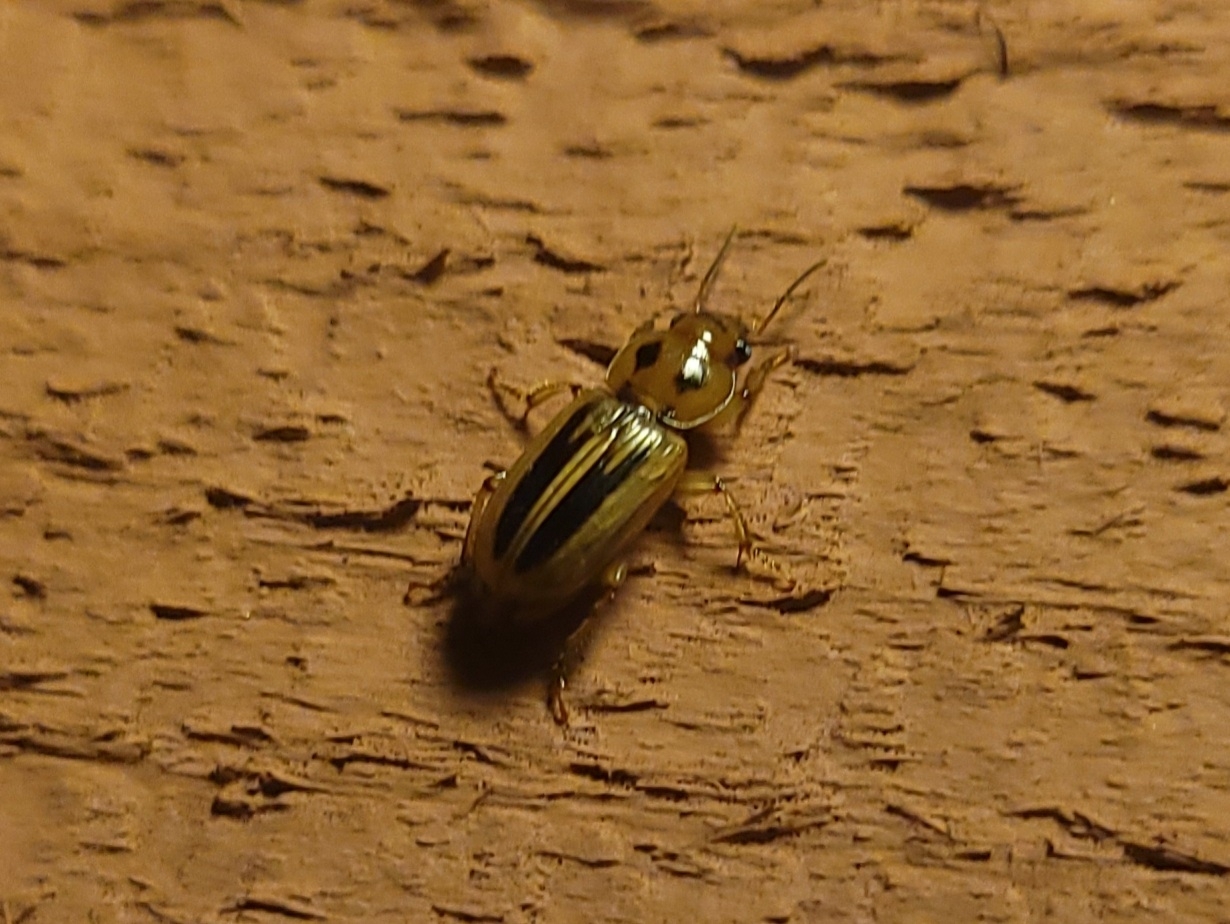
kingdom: Animalia
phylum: Arthropoda
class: Insecta
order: Coleoptera
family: Carabidae
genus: Stenolophus
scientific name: Stenolophus lineola
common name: Lined stenolophus
